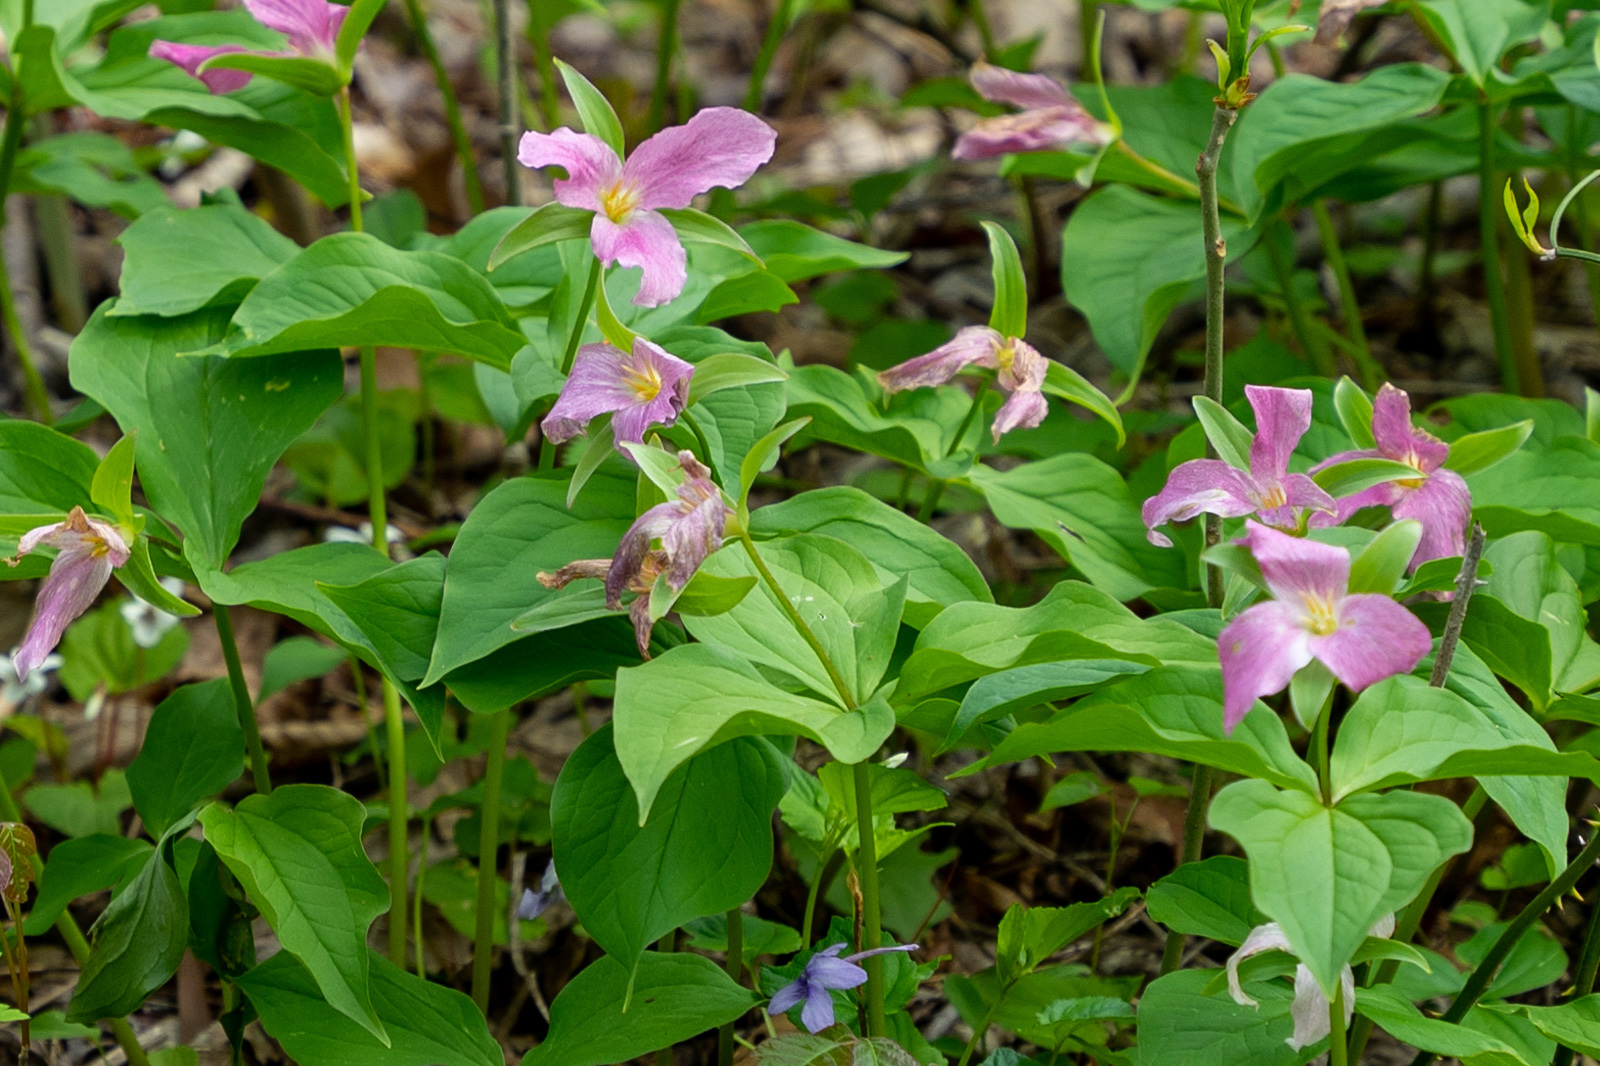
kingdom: Plantae
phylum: Tracheophyta
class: Liliopsida
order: Liliales
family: Melanthiaceae
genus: Trillium
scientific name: Trillium grandiflorum
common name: Great white trillium
